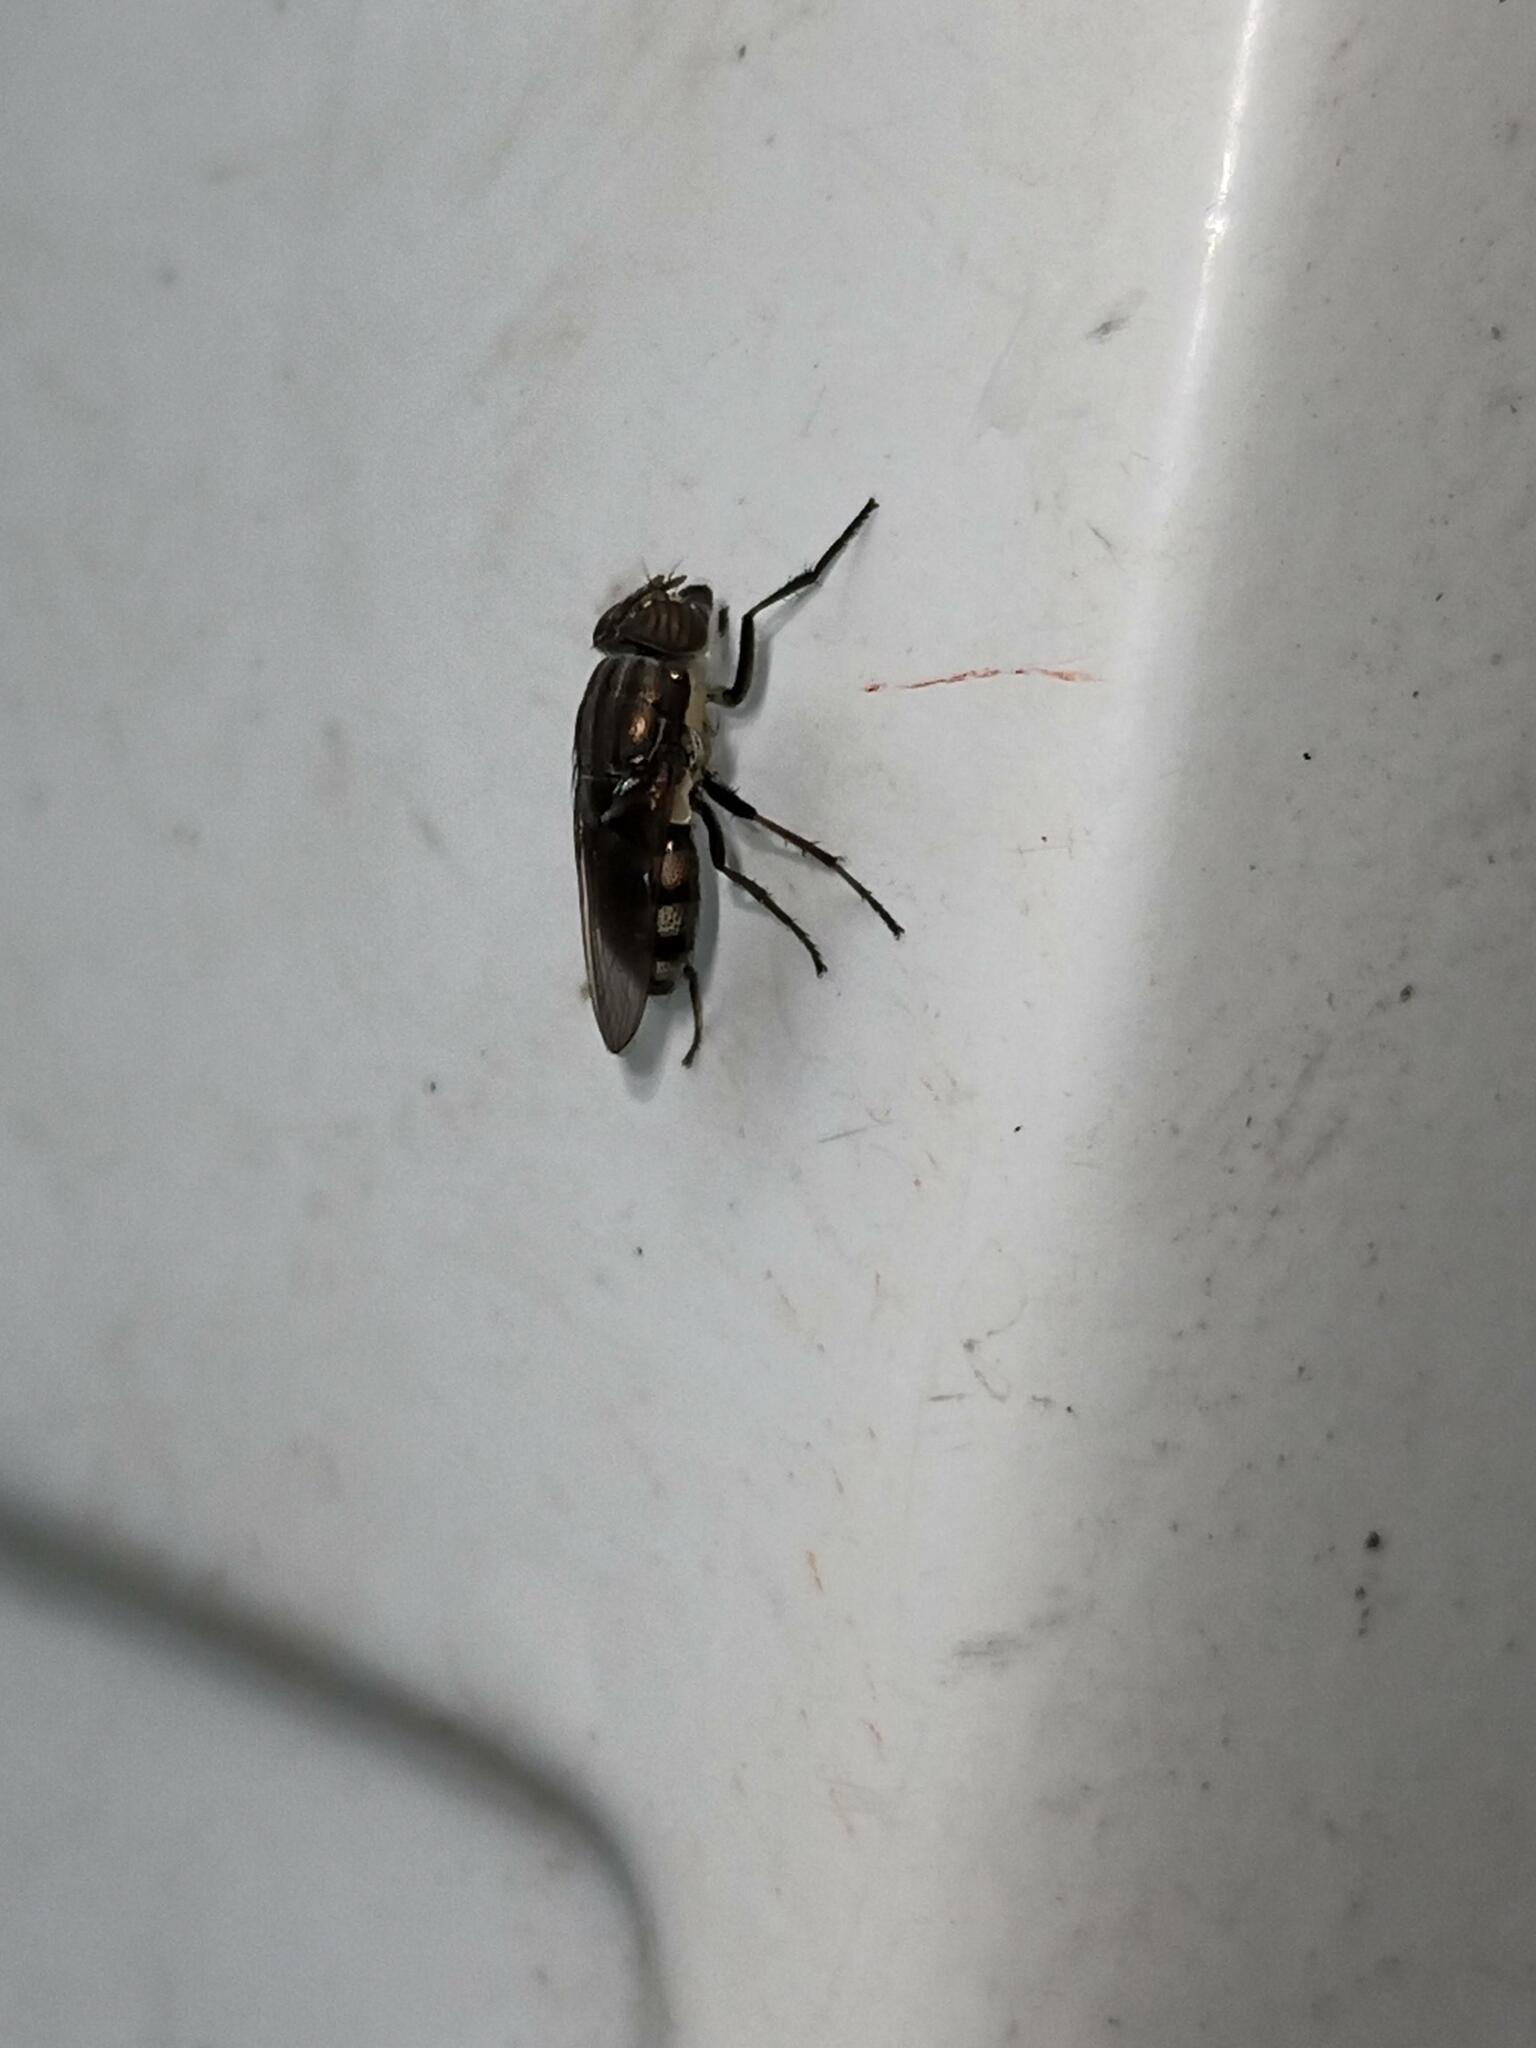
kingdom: Animalia
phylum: Arthropoda
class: Insecta
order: Diptera
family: Calliphoridae
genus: Stomorhina
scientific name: Stomorhina lunata
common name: Locust blowfly
